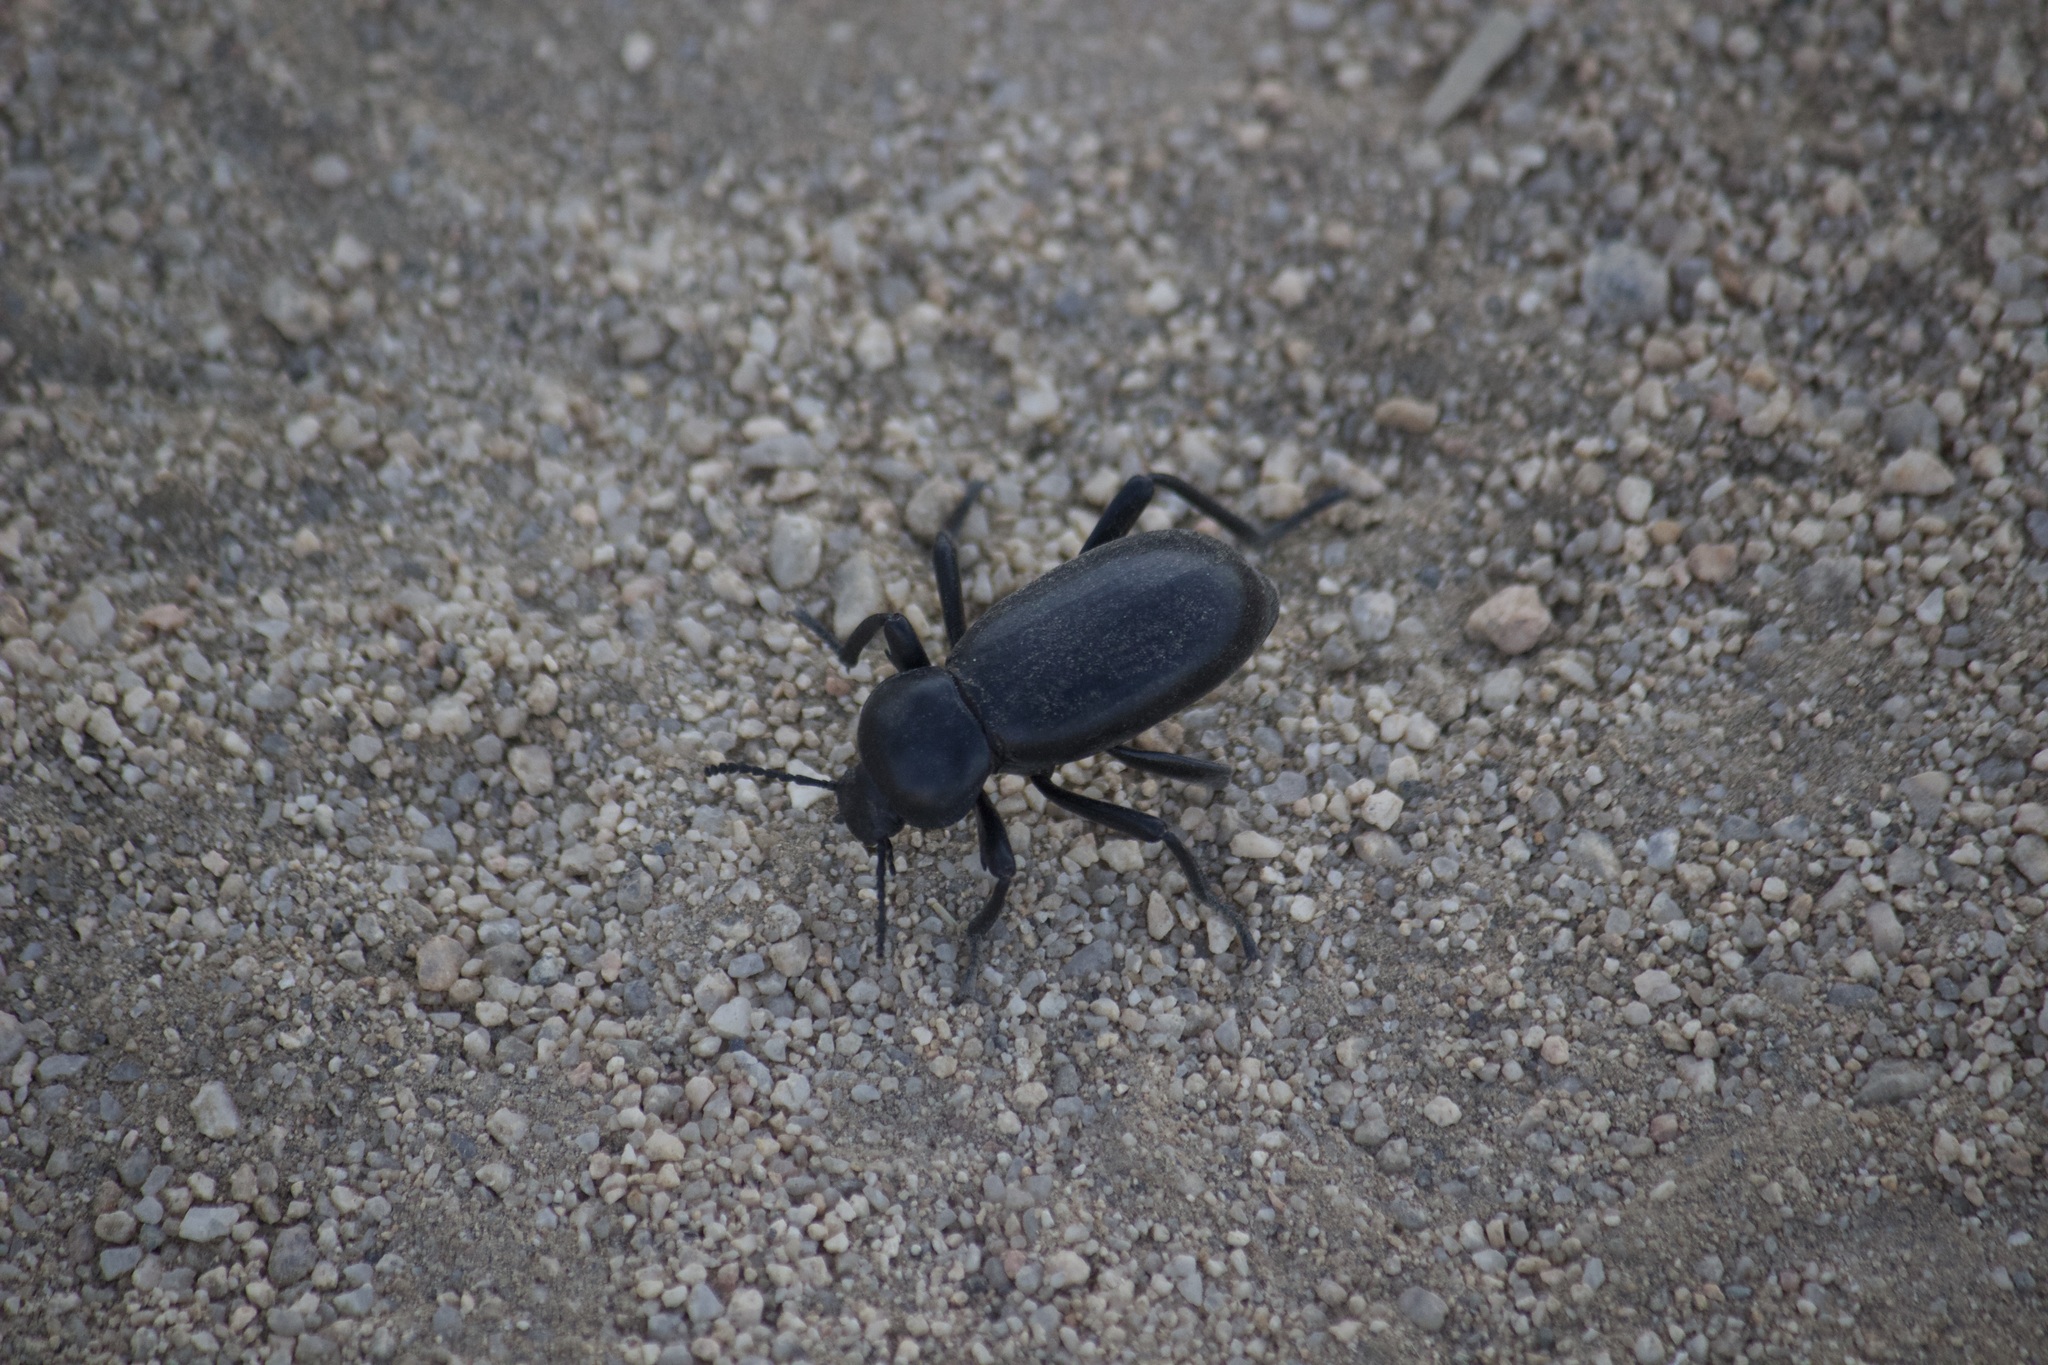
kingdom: Animalia
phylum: Arthropoda
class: Insecta
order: Coleoptera
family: Tenebrionidae
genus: Eleodes
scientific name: Eleodes grandicollis
